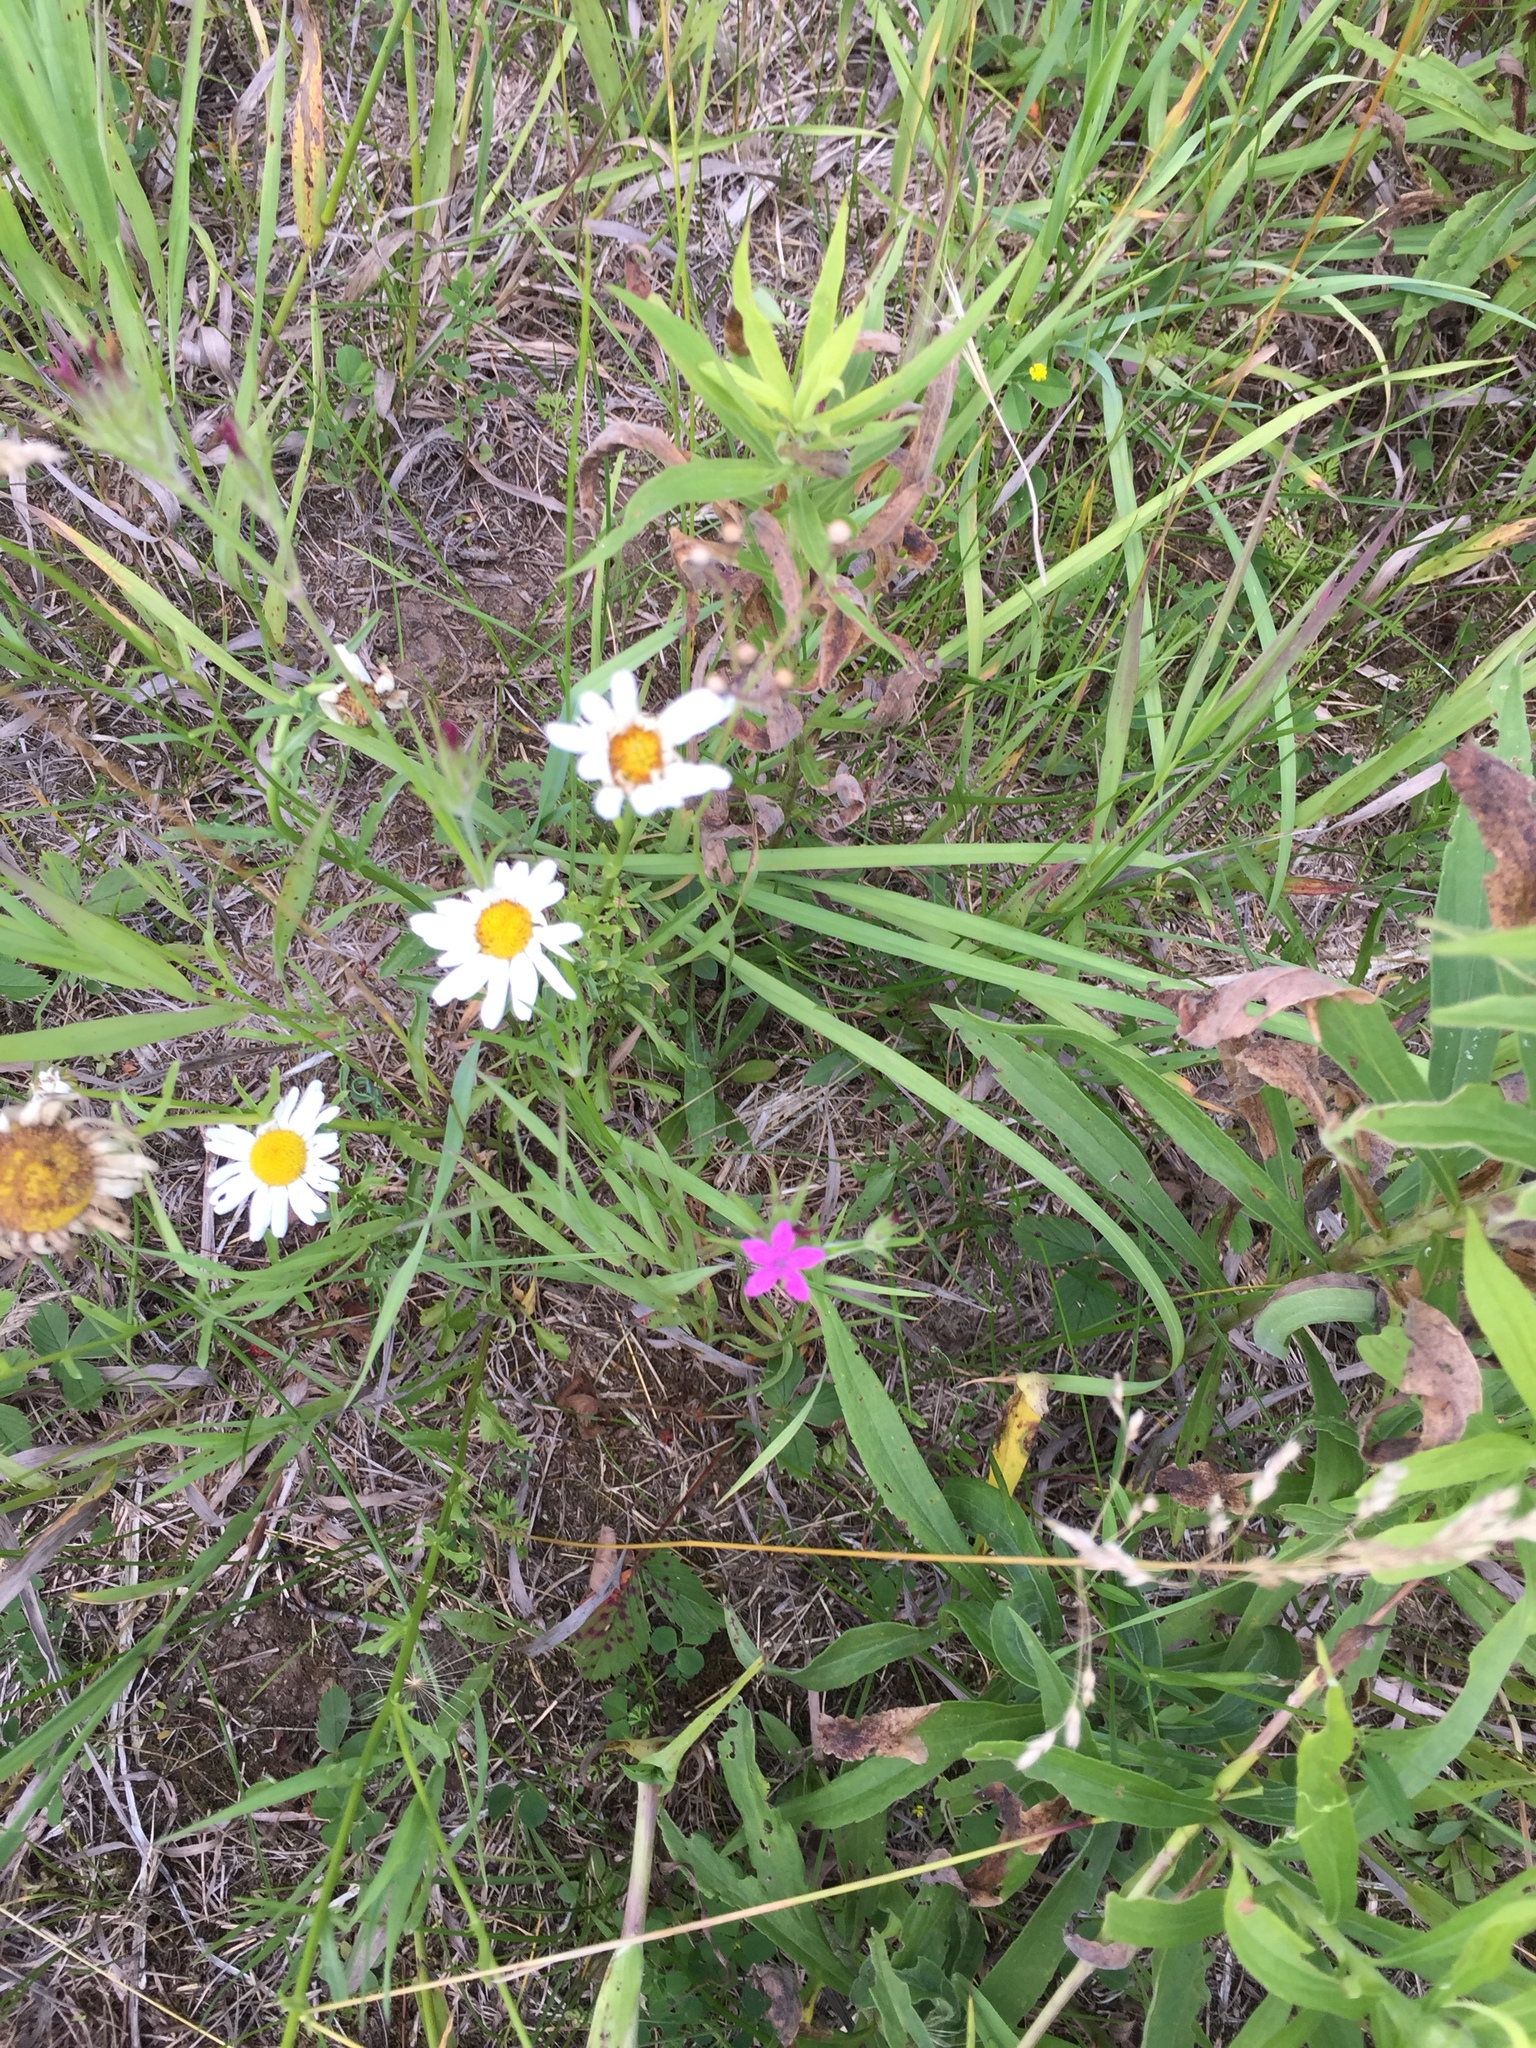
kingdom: Plantae
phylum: Tracheophyta
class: Magnoliopsida
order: Caryophyllales
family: Caryophyllaceae
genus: Dianthus
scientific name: Dianthus armeria
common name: Deptford pink
